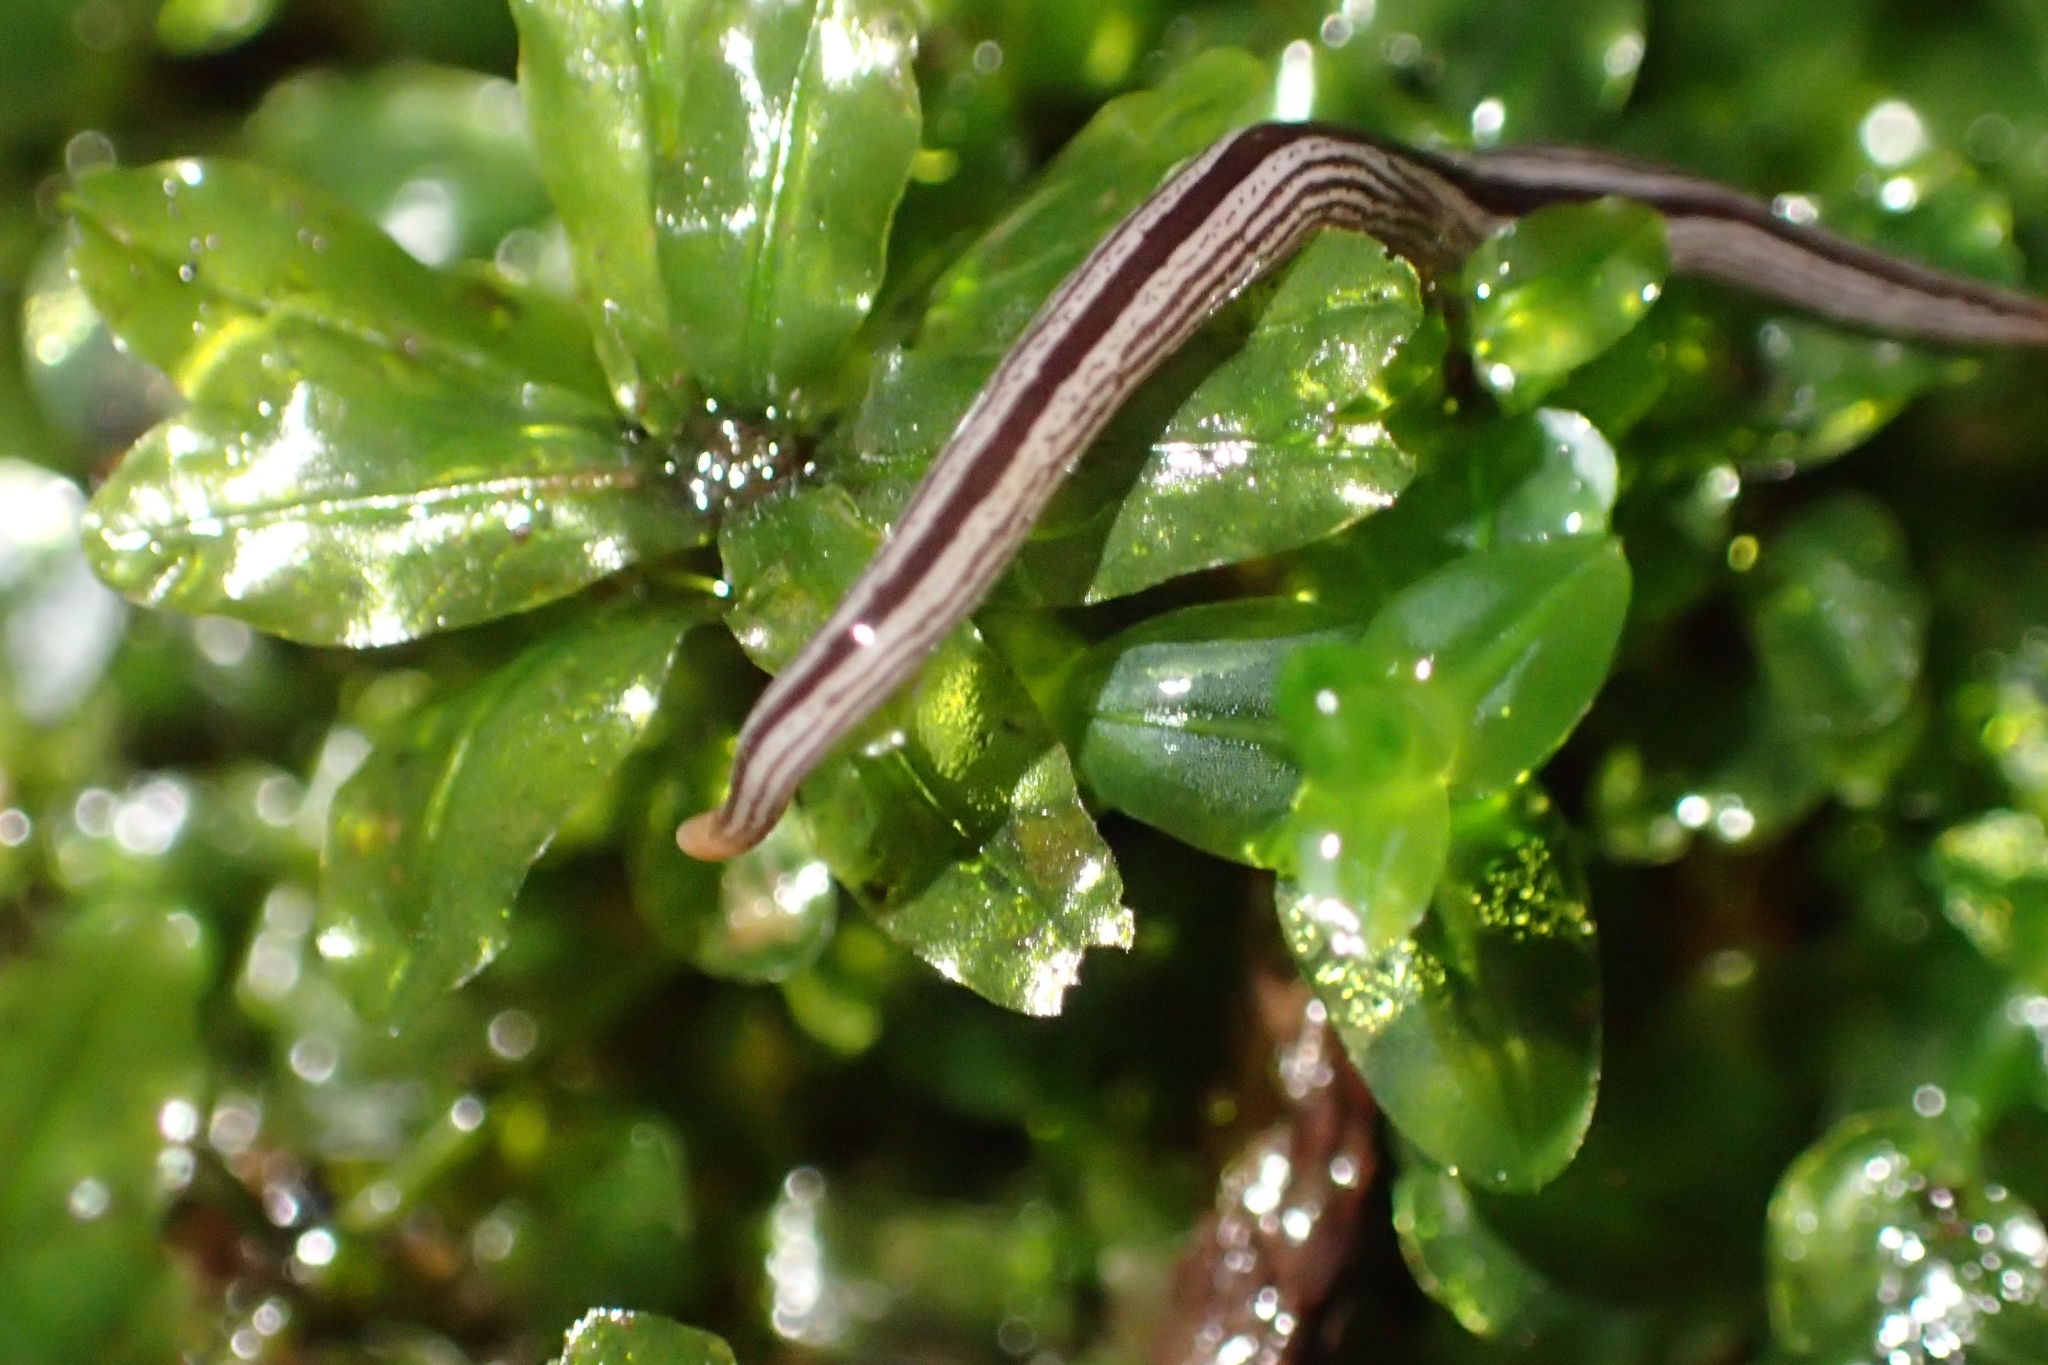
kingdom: Animalia
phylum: Platyhelminthes
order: Tricladida
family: Geoplanidae
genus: Artioposthia
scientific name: Artioposthia exulans
